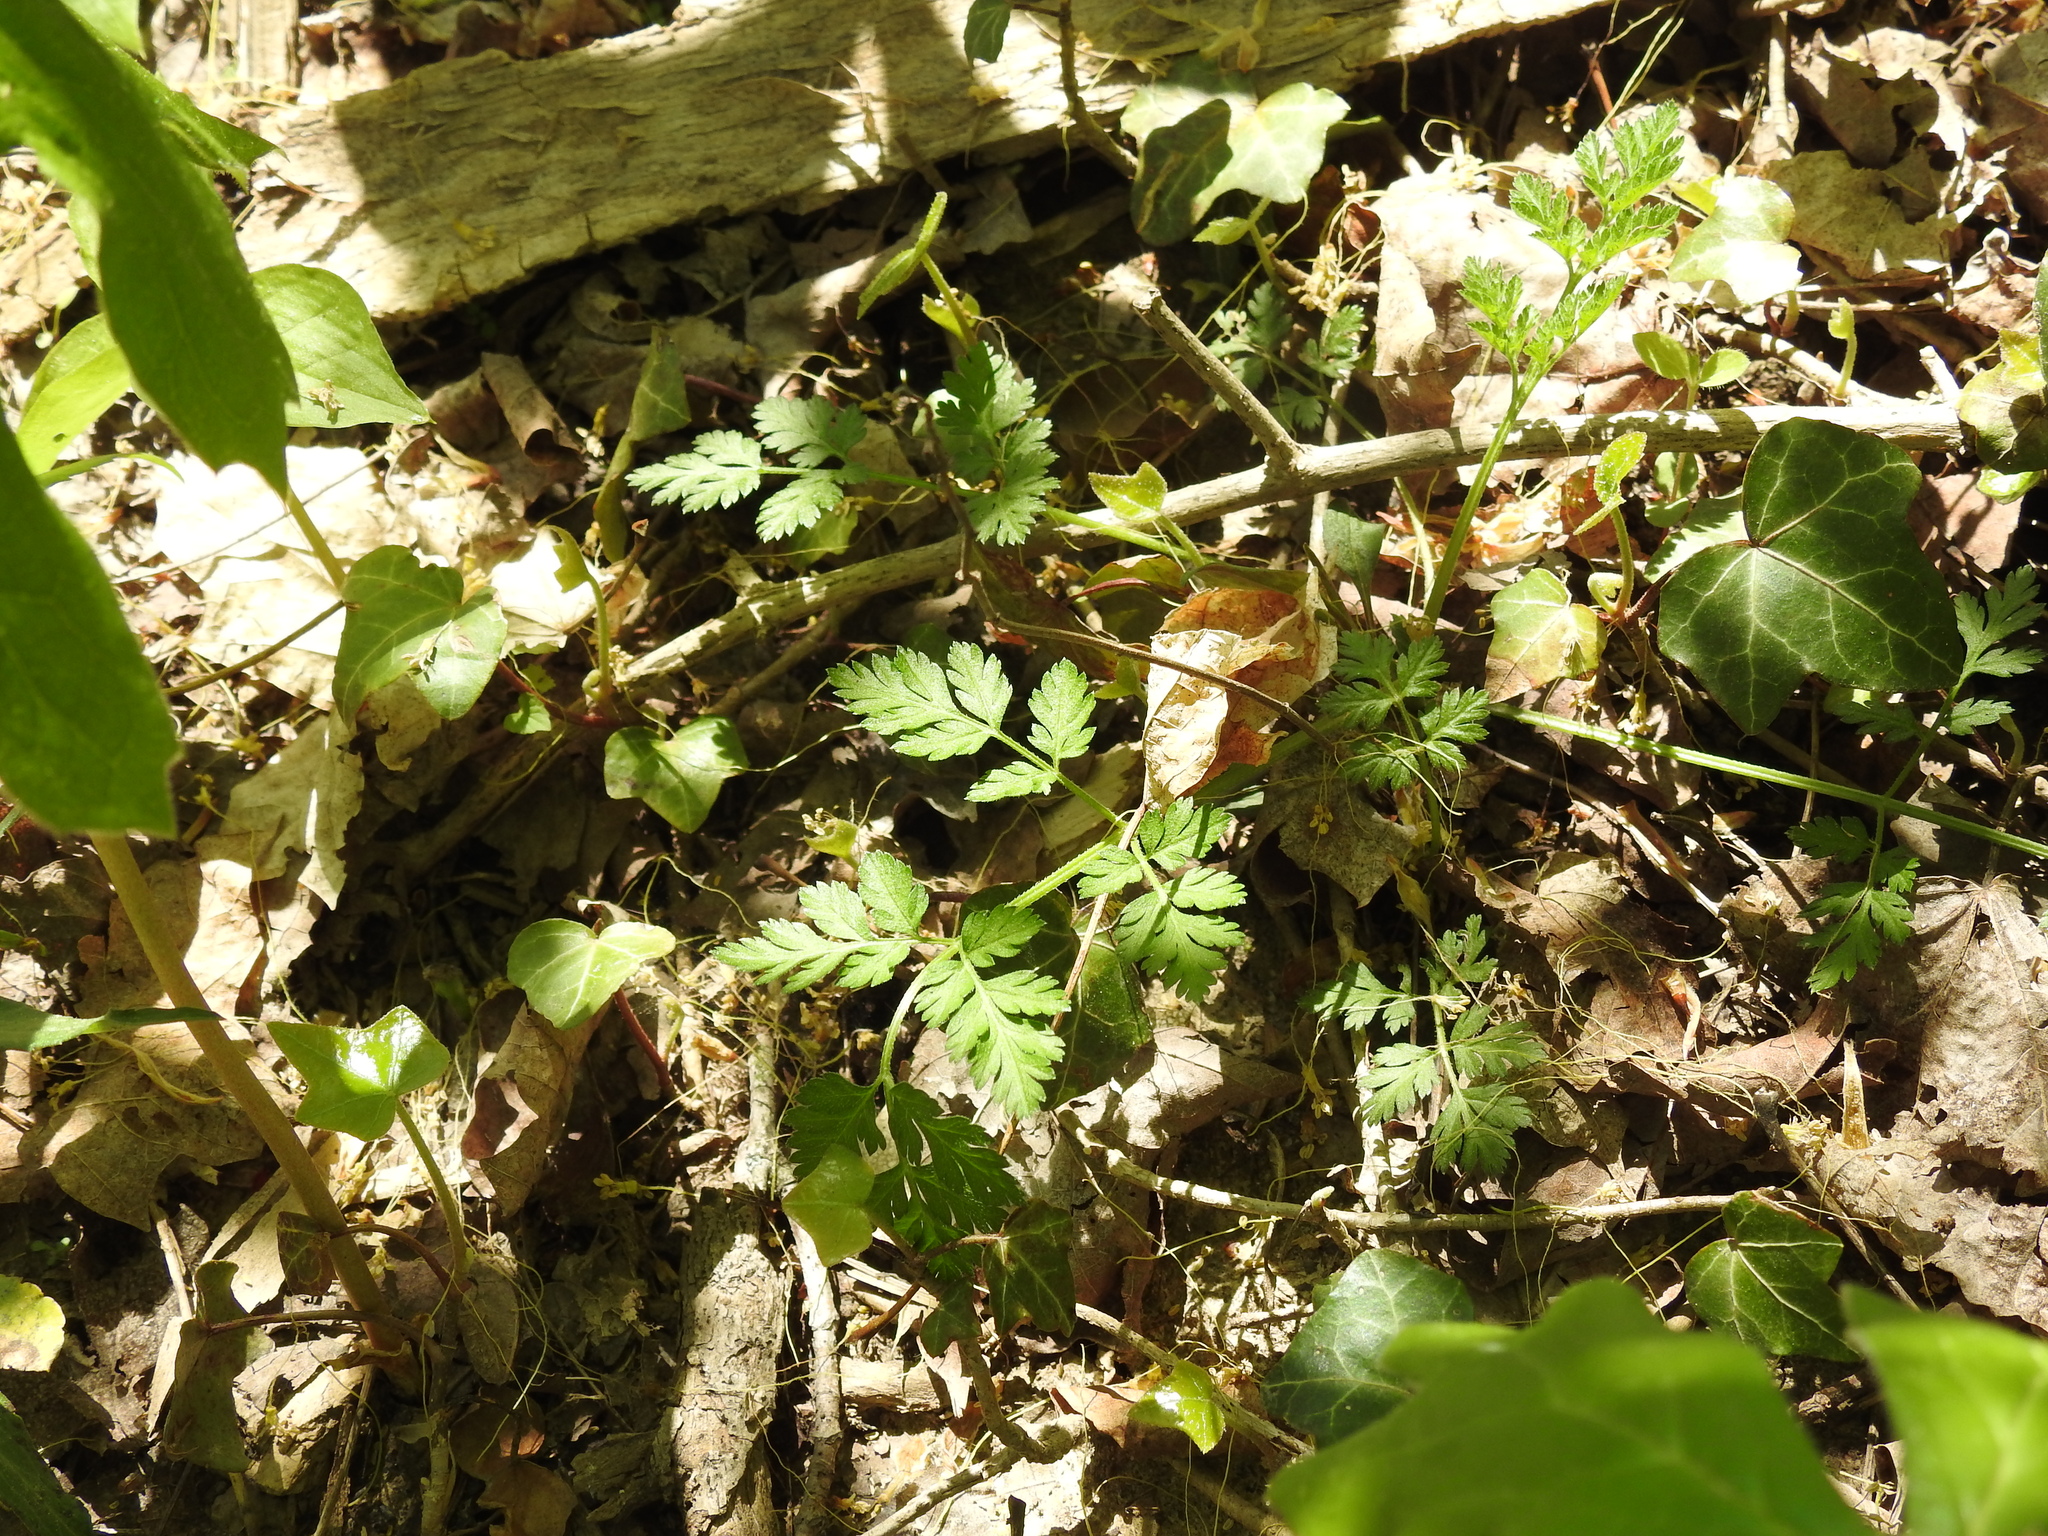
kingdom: Plantae
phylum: Tracheophyta
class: Magnoliopsida
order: Apiales
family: Apiaceae
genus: Chaerophyllum
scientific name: Chaerophyllum procumbens
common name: Spreading chervil
